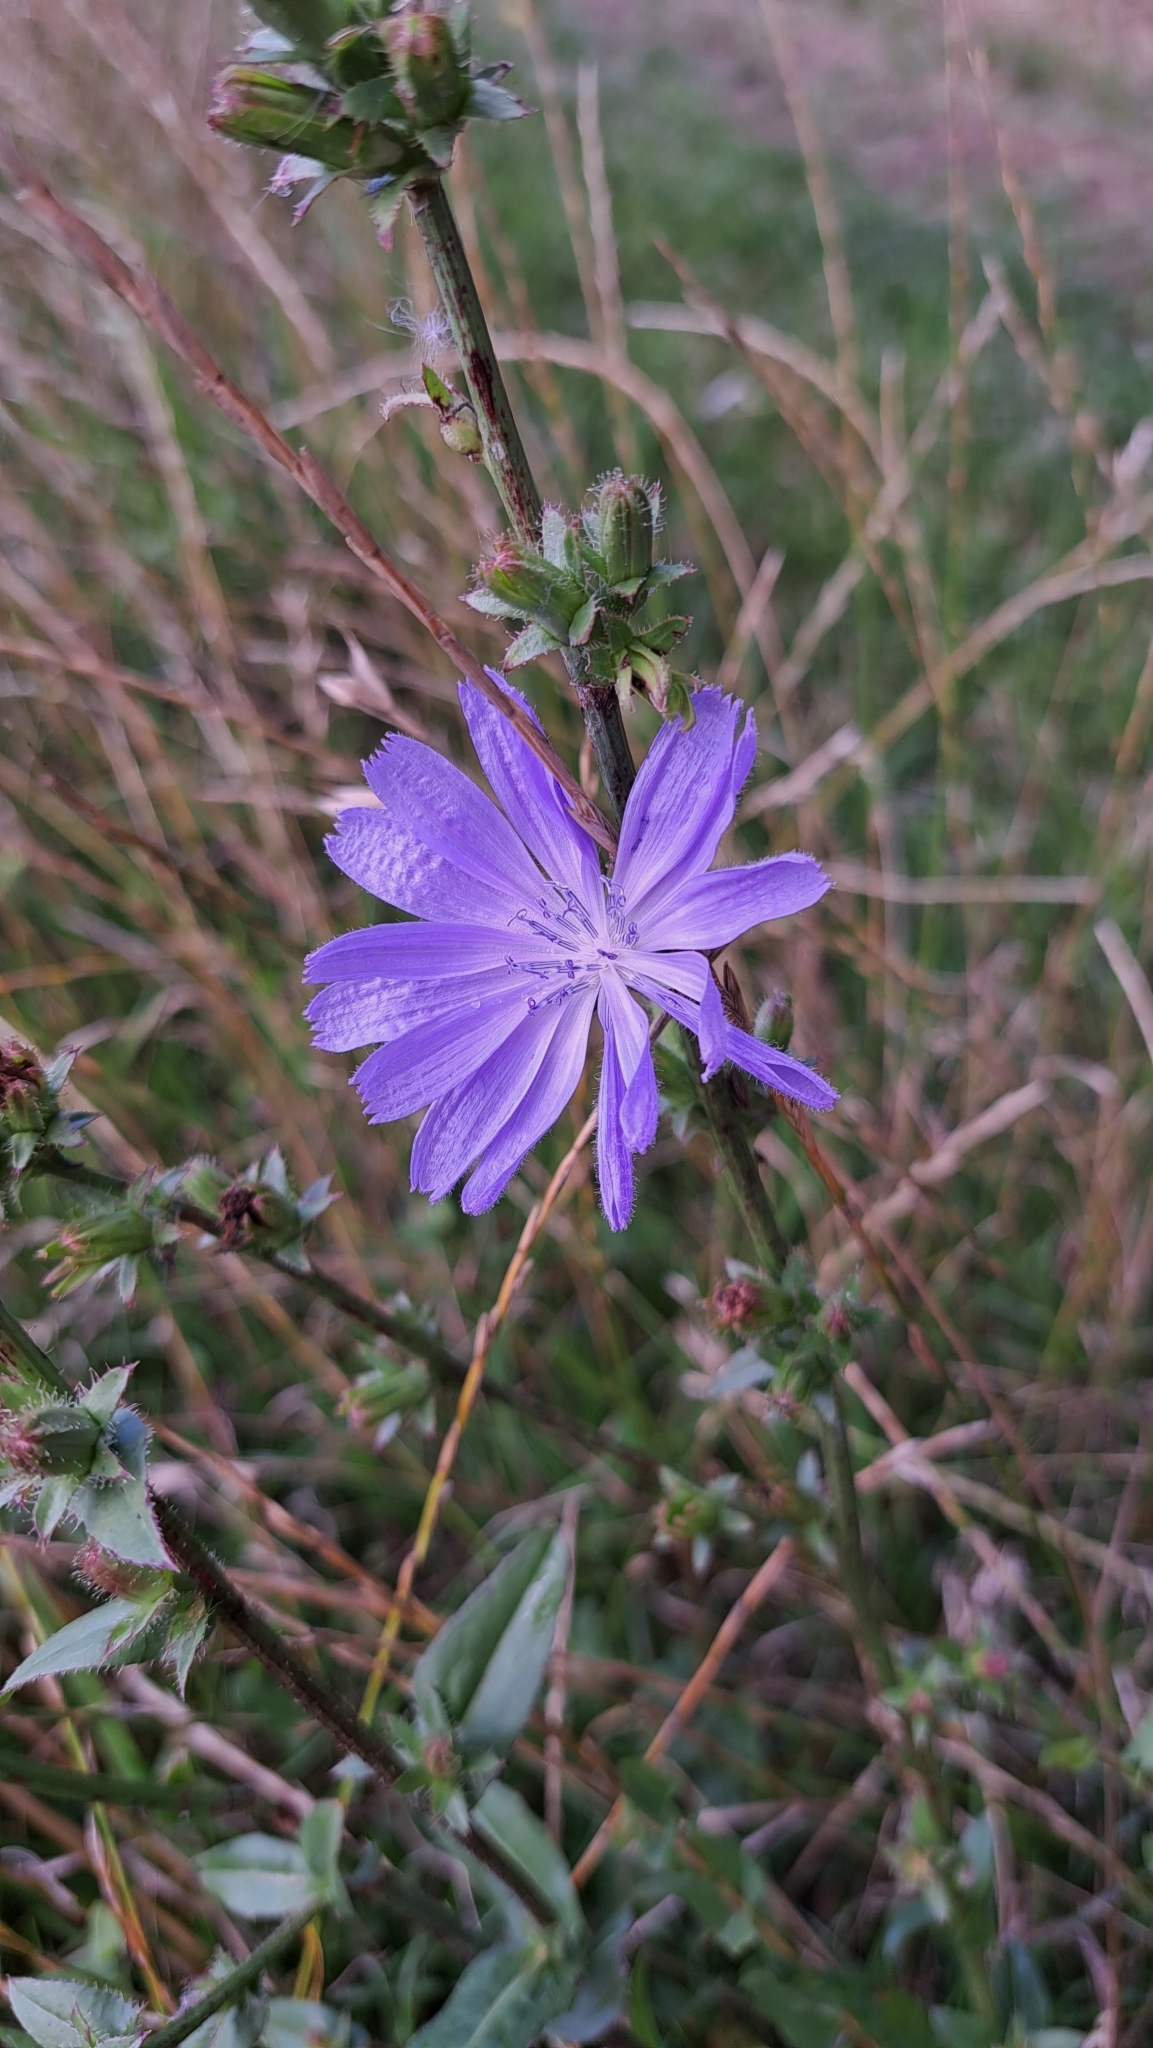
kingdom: Plantae
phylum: Tracheophyta
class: Magnoliopsida
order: Asterales
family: Asteraceae
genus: Cichorium
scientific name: Cichorium intybus
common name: Chicory
